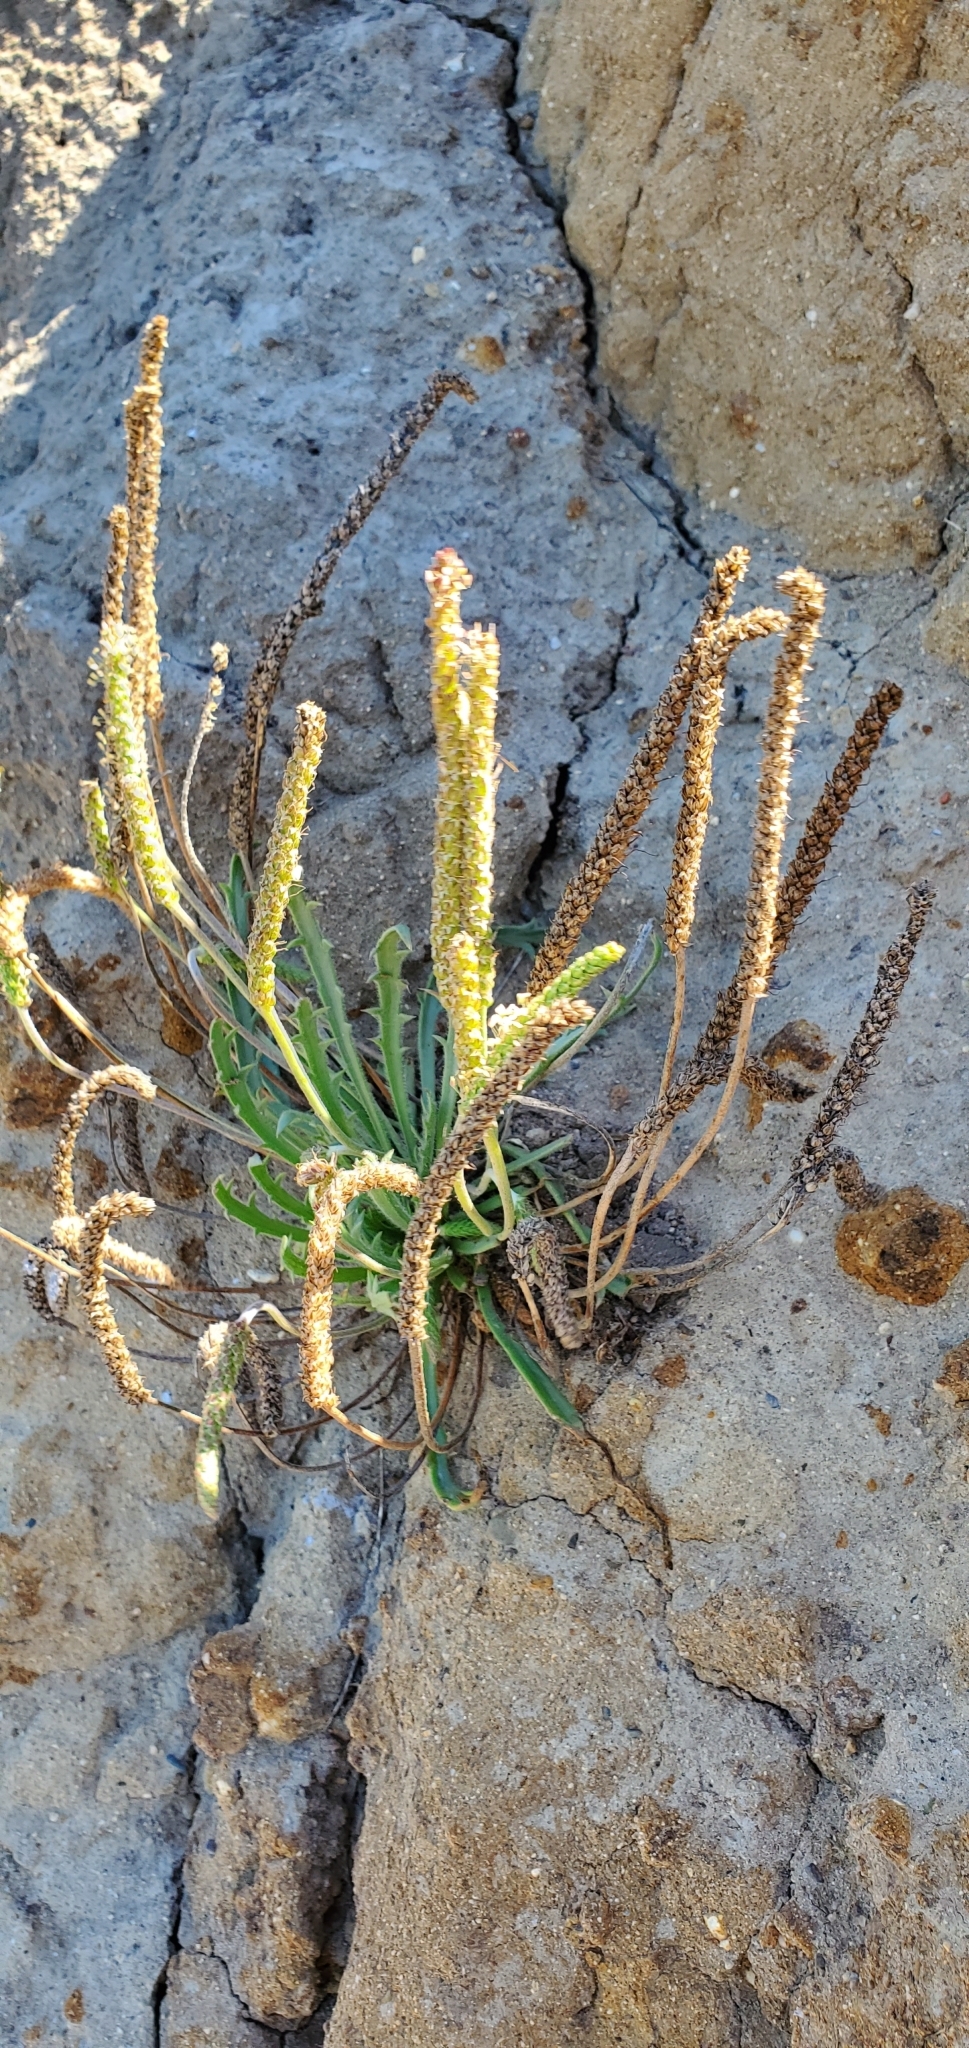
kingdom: Plantae
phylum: Tracheophyta
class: Magnoliopsida
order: Lamiales
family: Plantaginaceae
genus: Plantago
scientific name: Plantago coronopus
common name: Buck's-horn plantain
